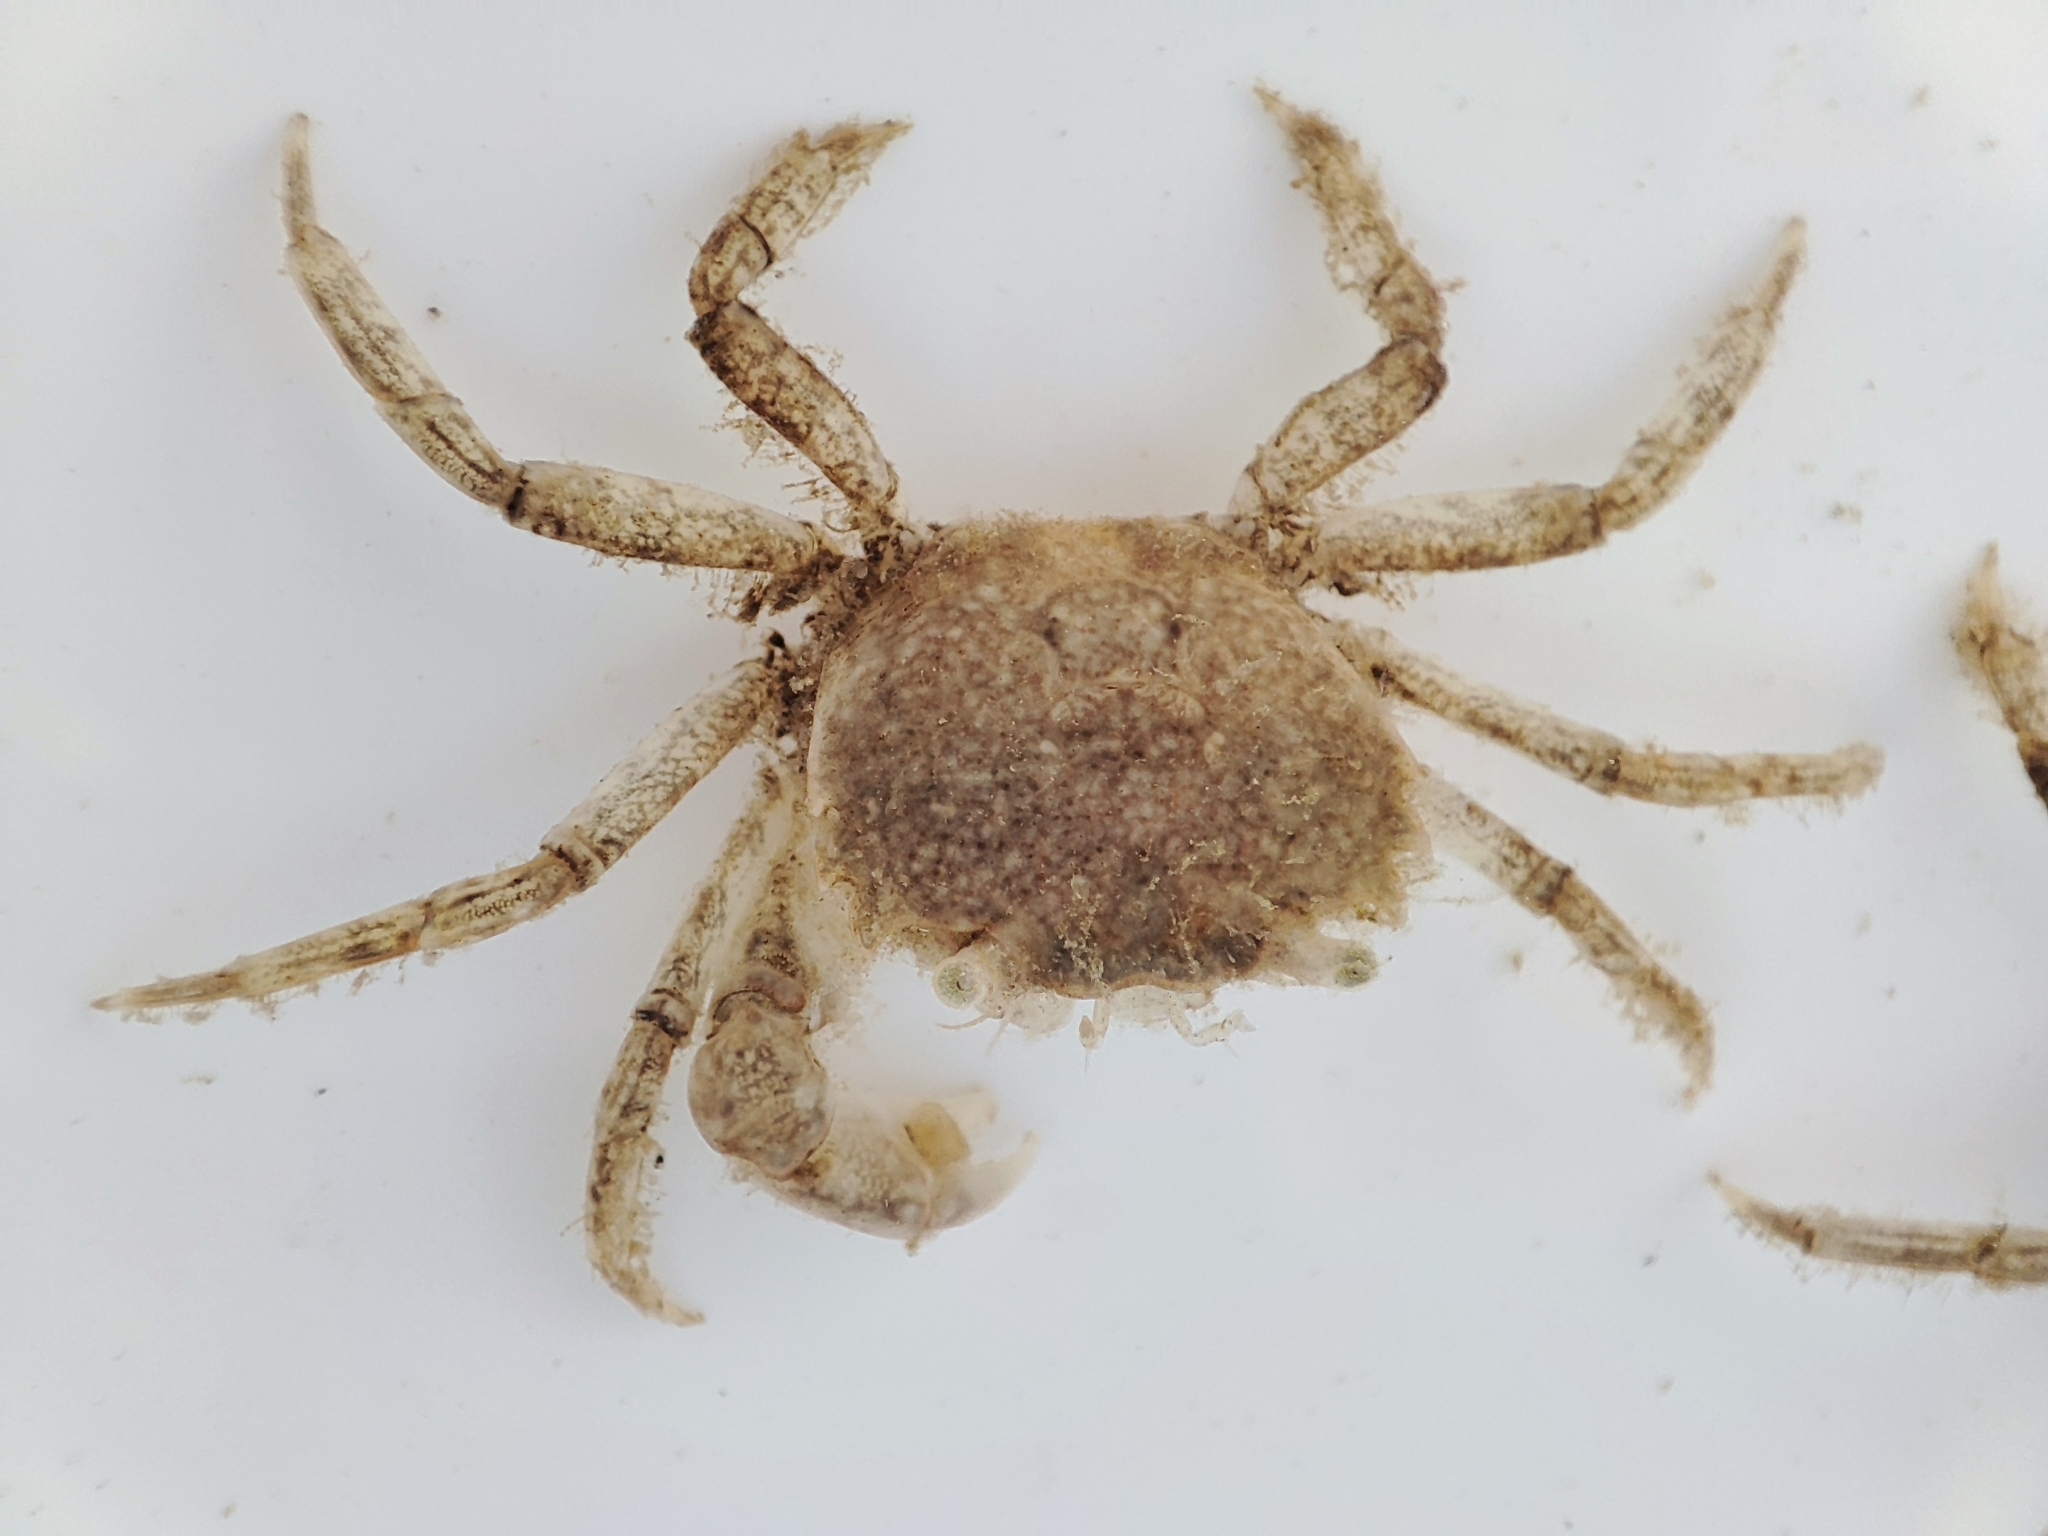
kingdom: Animalia
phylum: Arthropoda
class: Malacostraca
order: Decapoda
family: Varunidae
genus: Brachynotus
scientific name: Brachynotus sexdentatus
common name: Mediterranean crab
